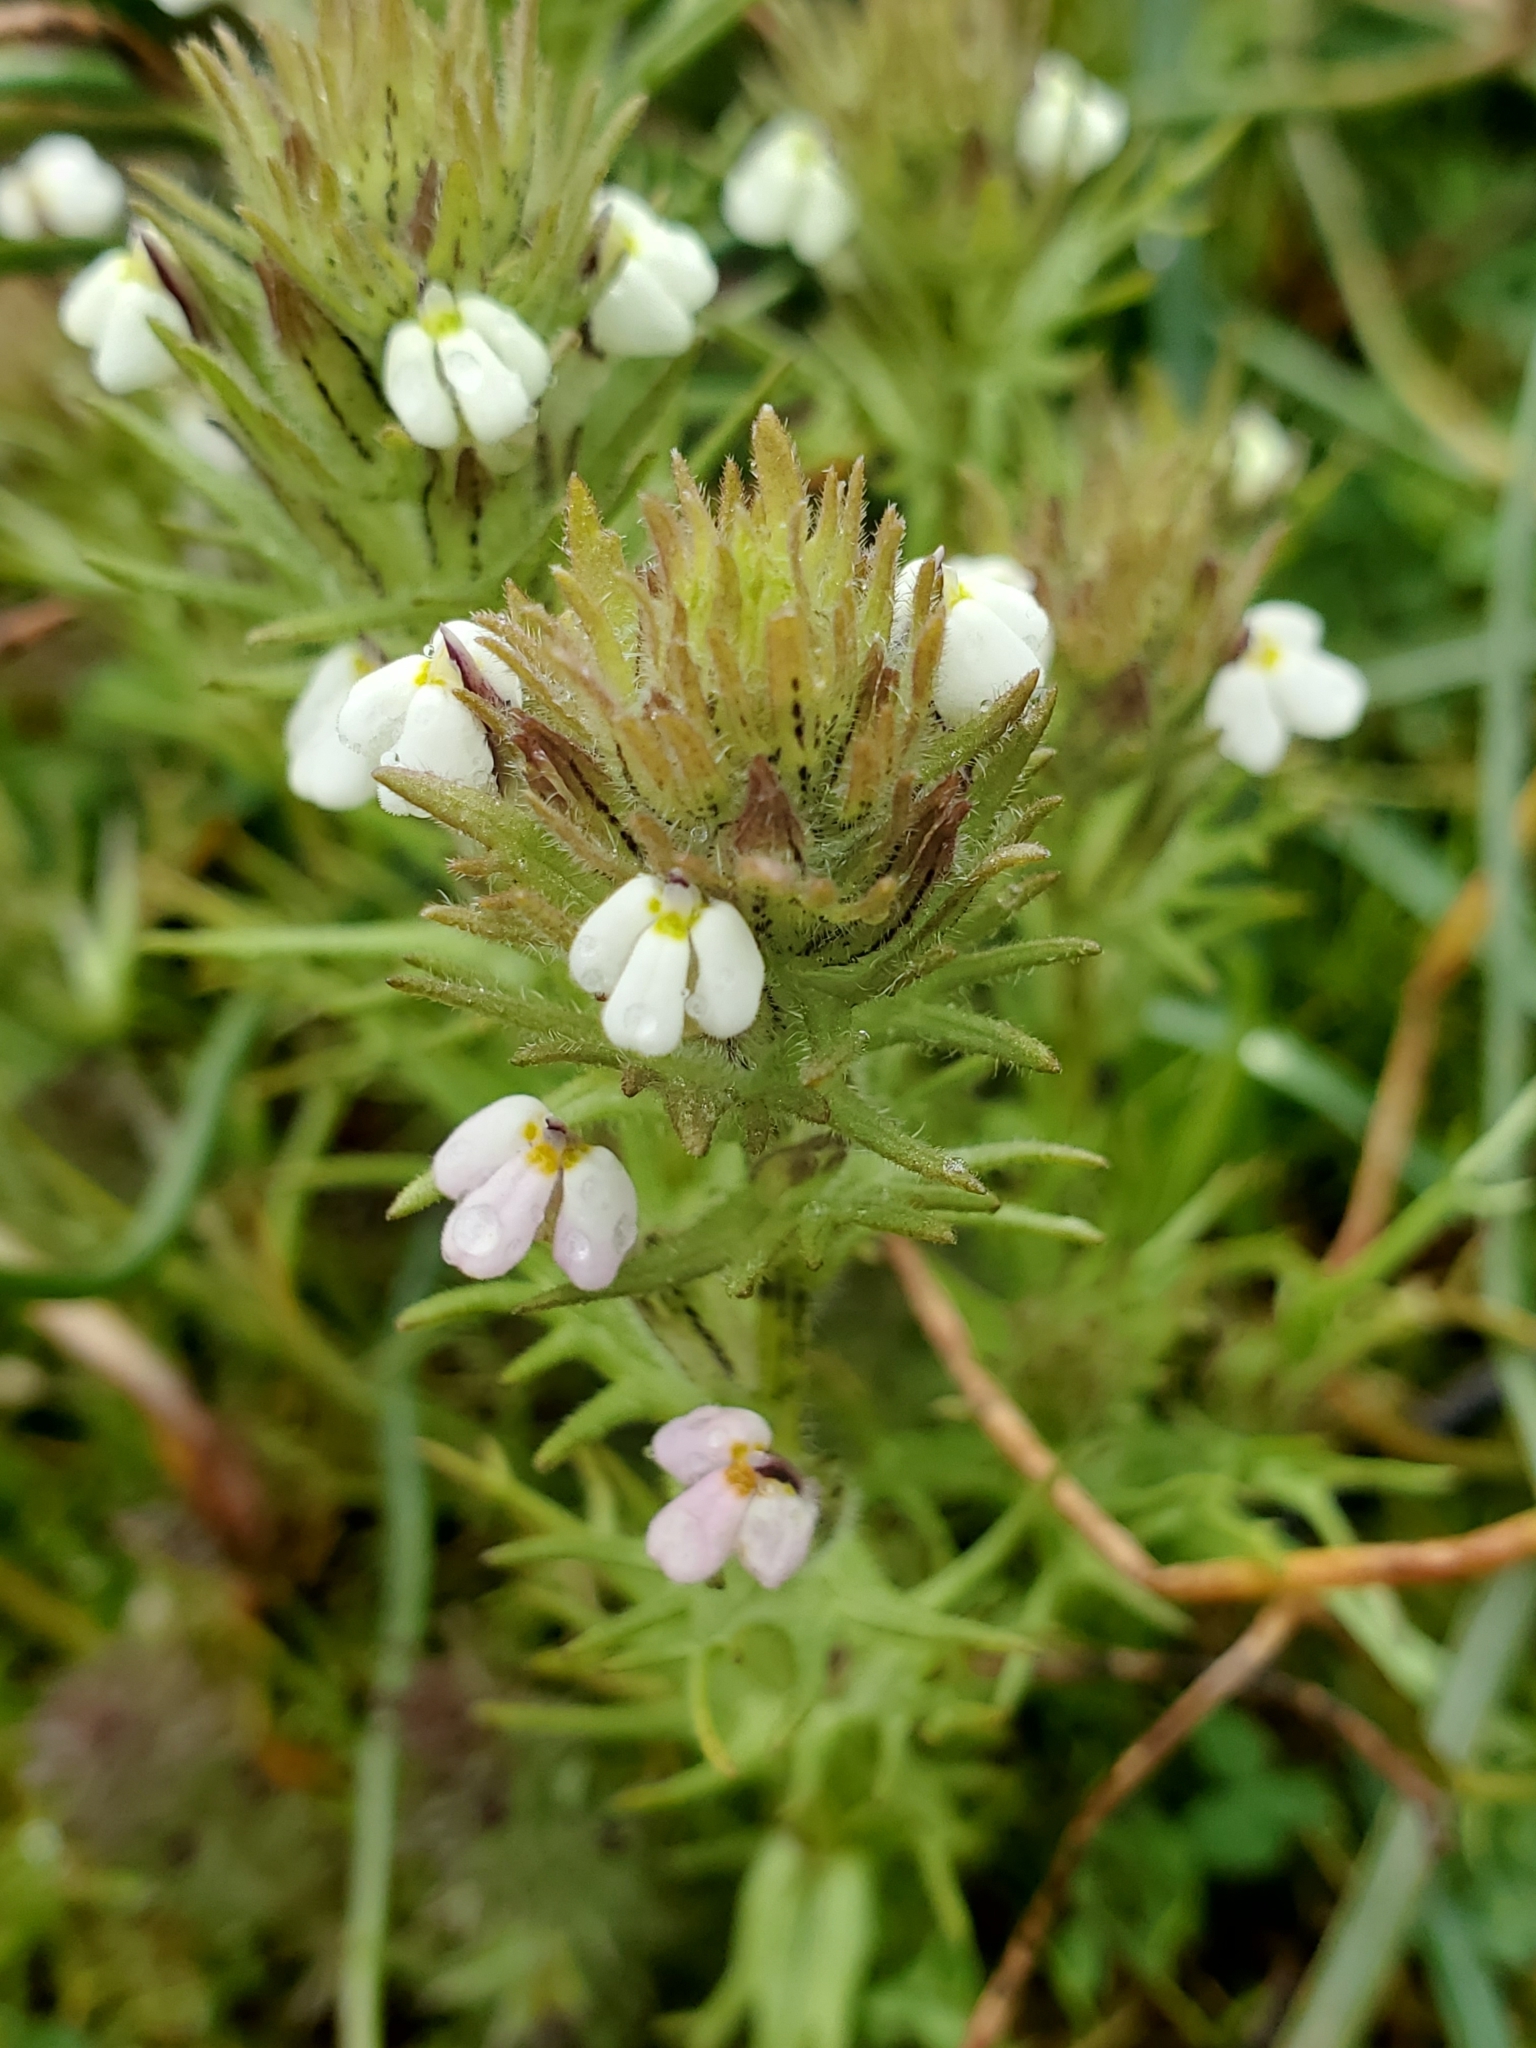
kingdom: Plantae
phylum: Tracheophyta
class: Magnoliopsida
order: Lamiales
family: Orobanchaceae
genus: Triphysaria
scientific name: Triphysaria versicolor
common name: Bearded false owl-clover
